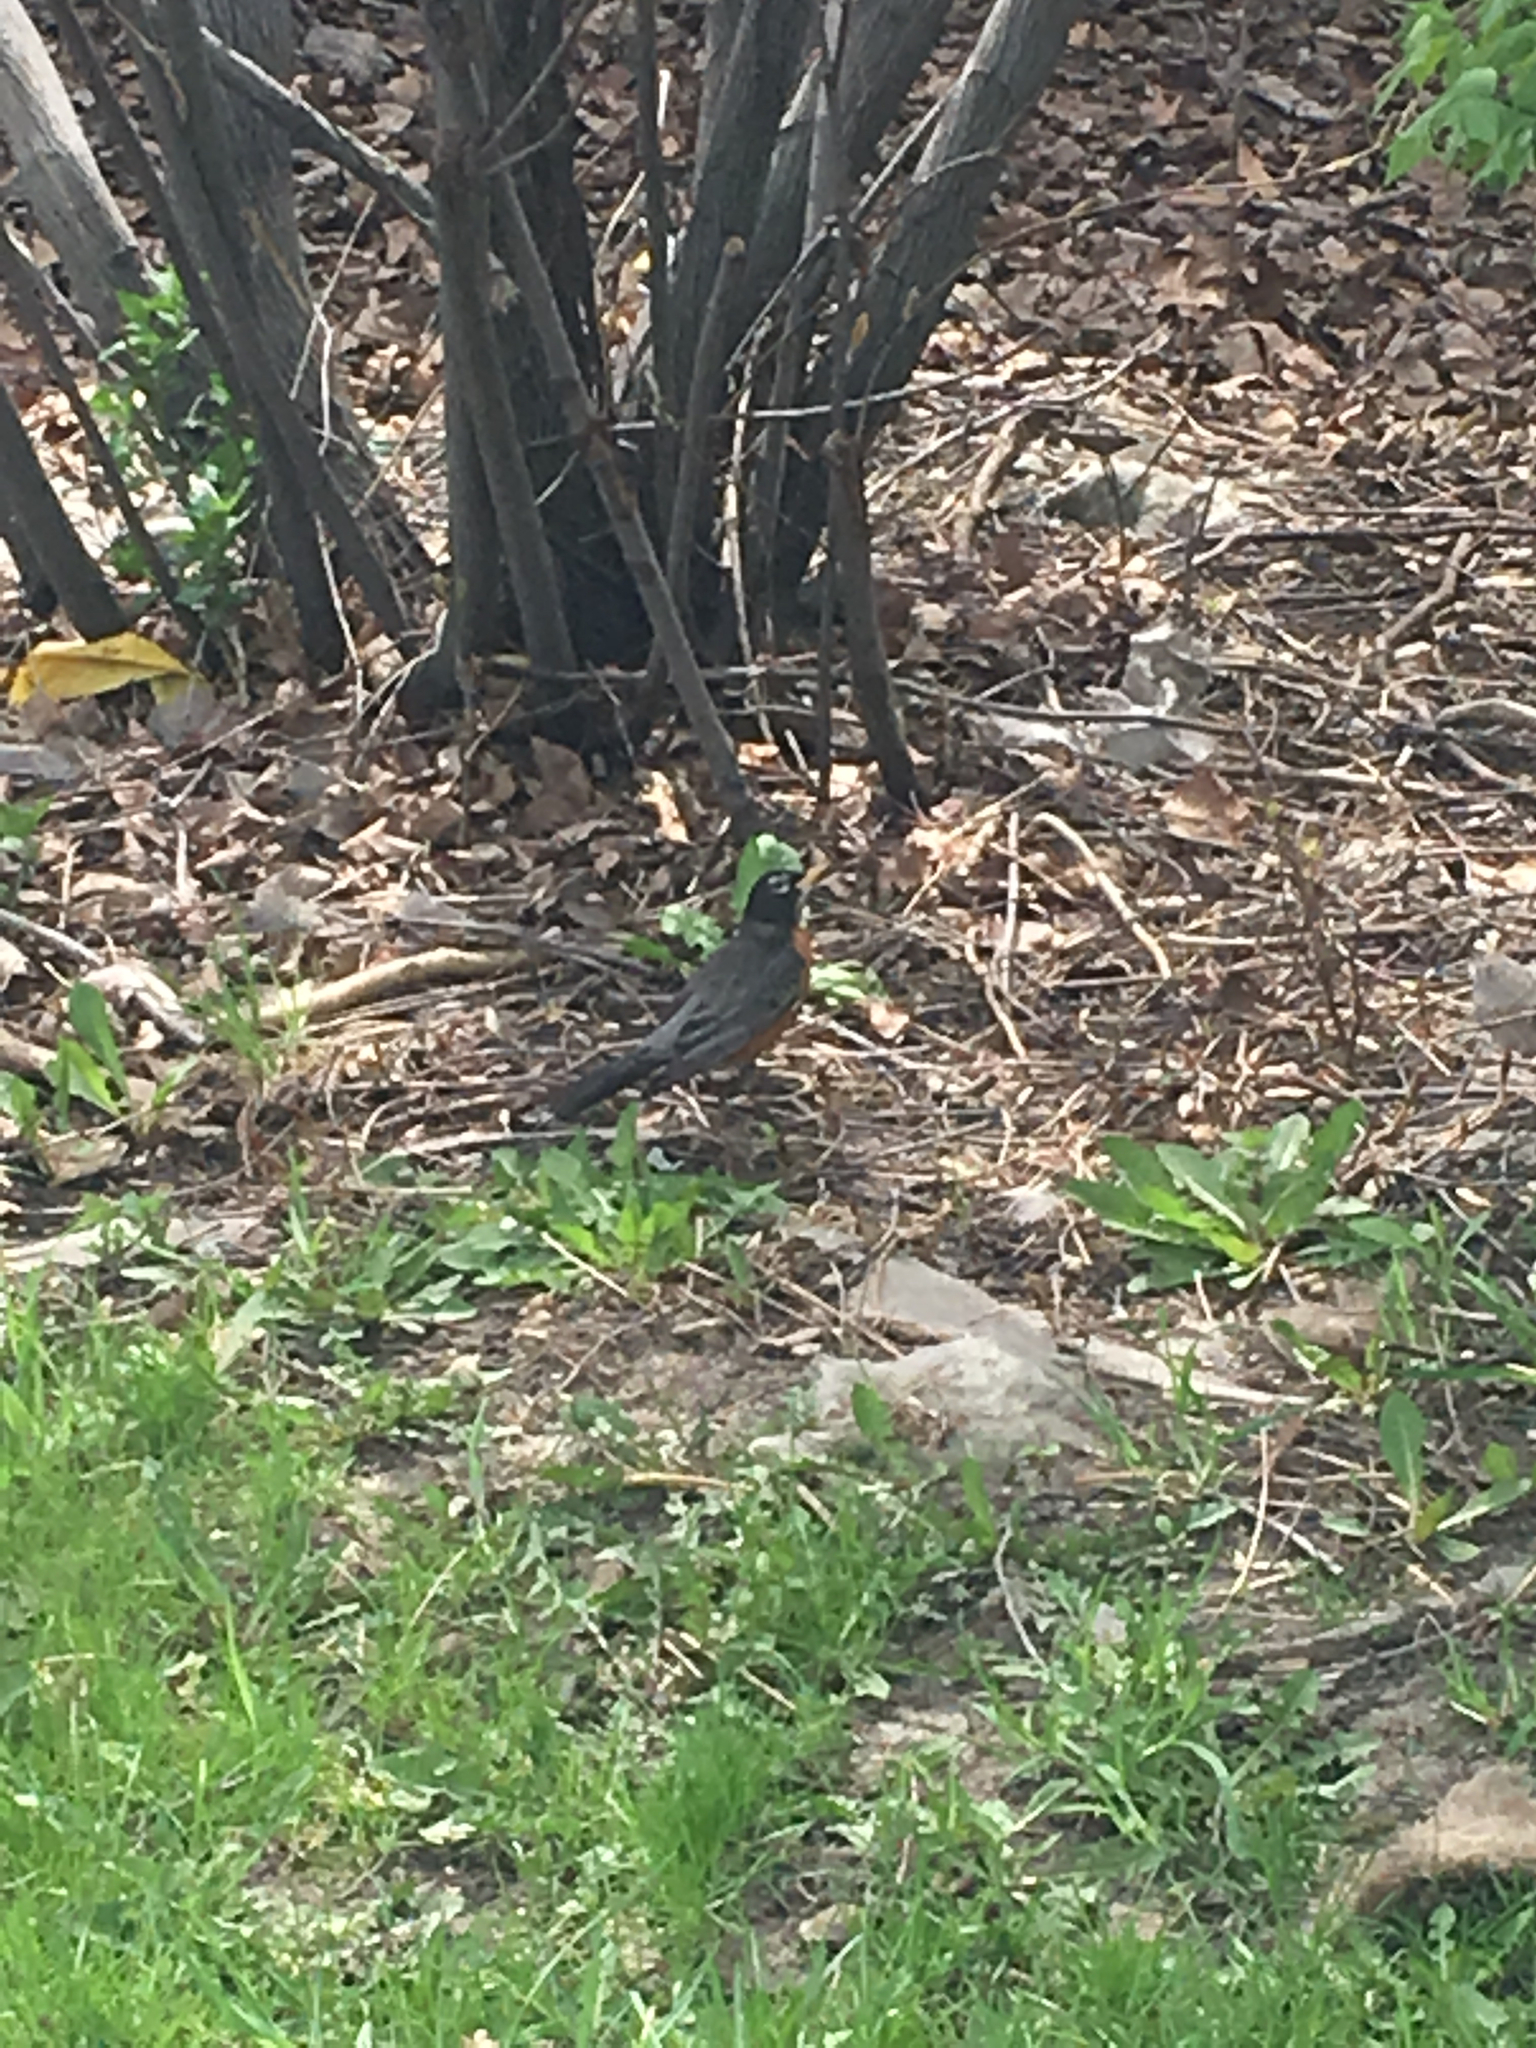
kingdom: Animalia
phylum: Chordata
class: Aves
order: Passeriformes
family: Turdidae
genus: Turdus
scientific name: Turdus migratorius
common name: American robin
